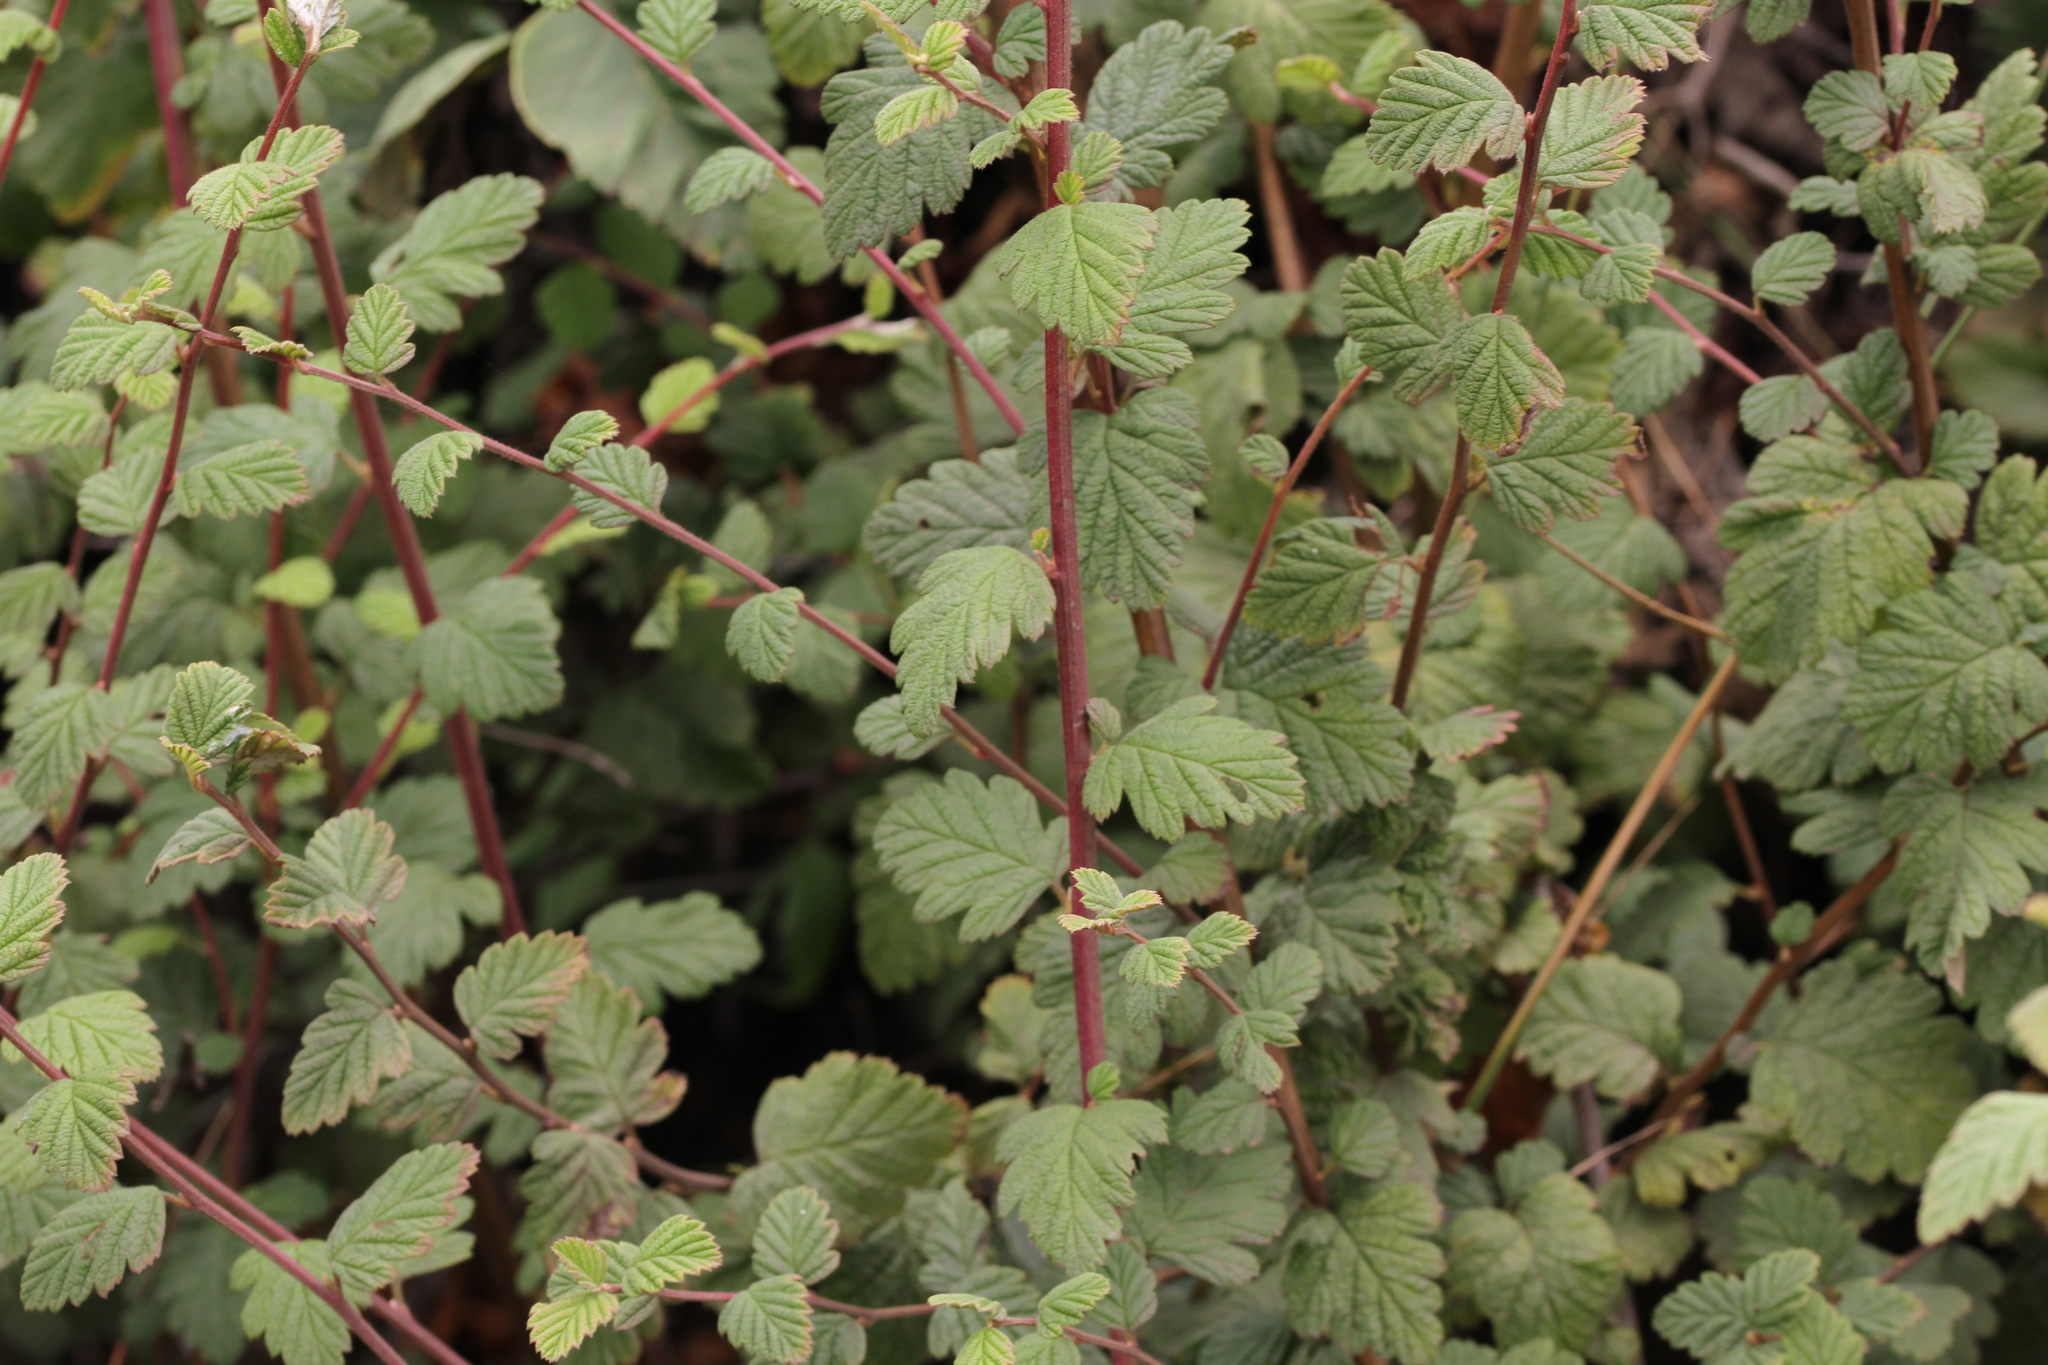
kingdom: Plantae
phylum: Tracheophyta
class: Magnoliopsida
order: Rosales
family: Rosaceae
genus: Holodiscus
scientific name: Holodiscus discolor
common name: Oceanspray
